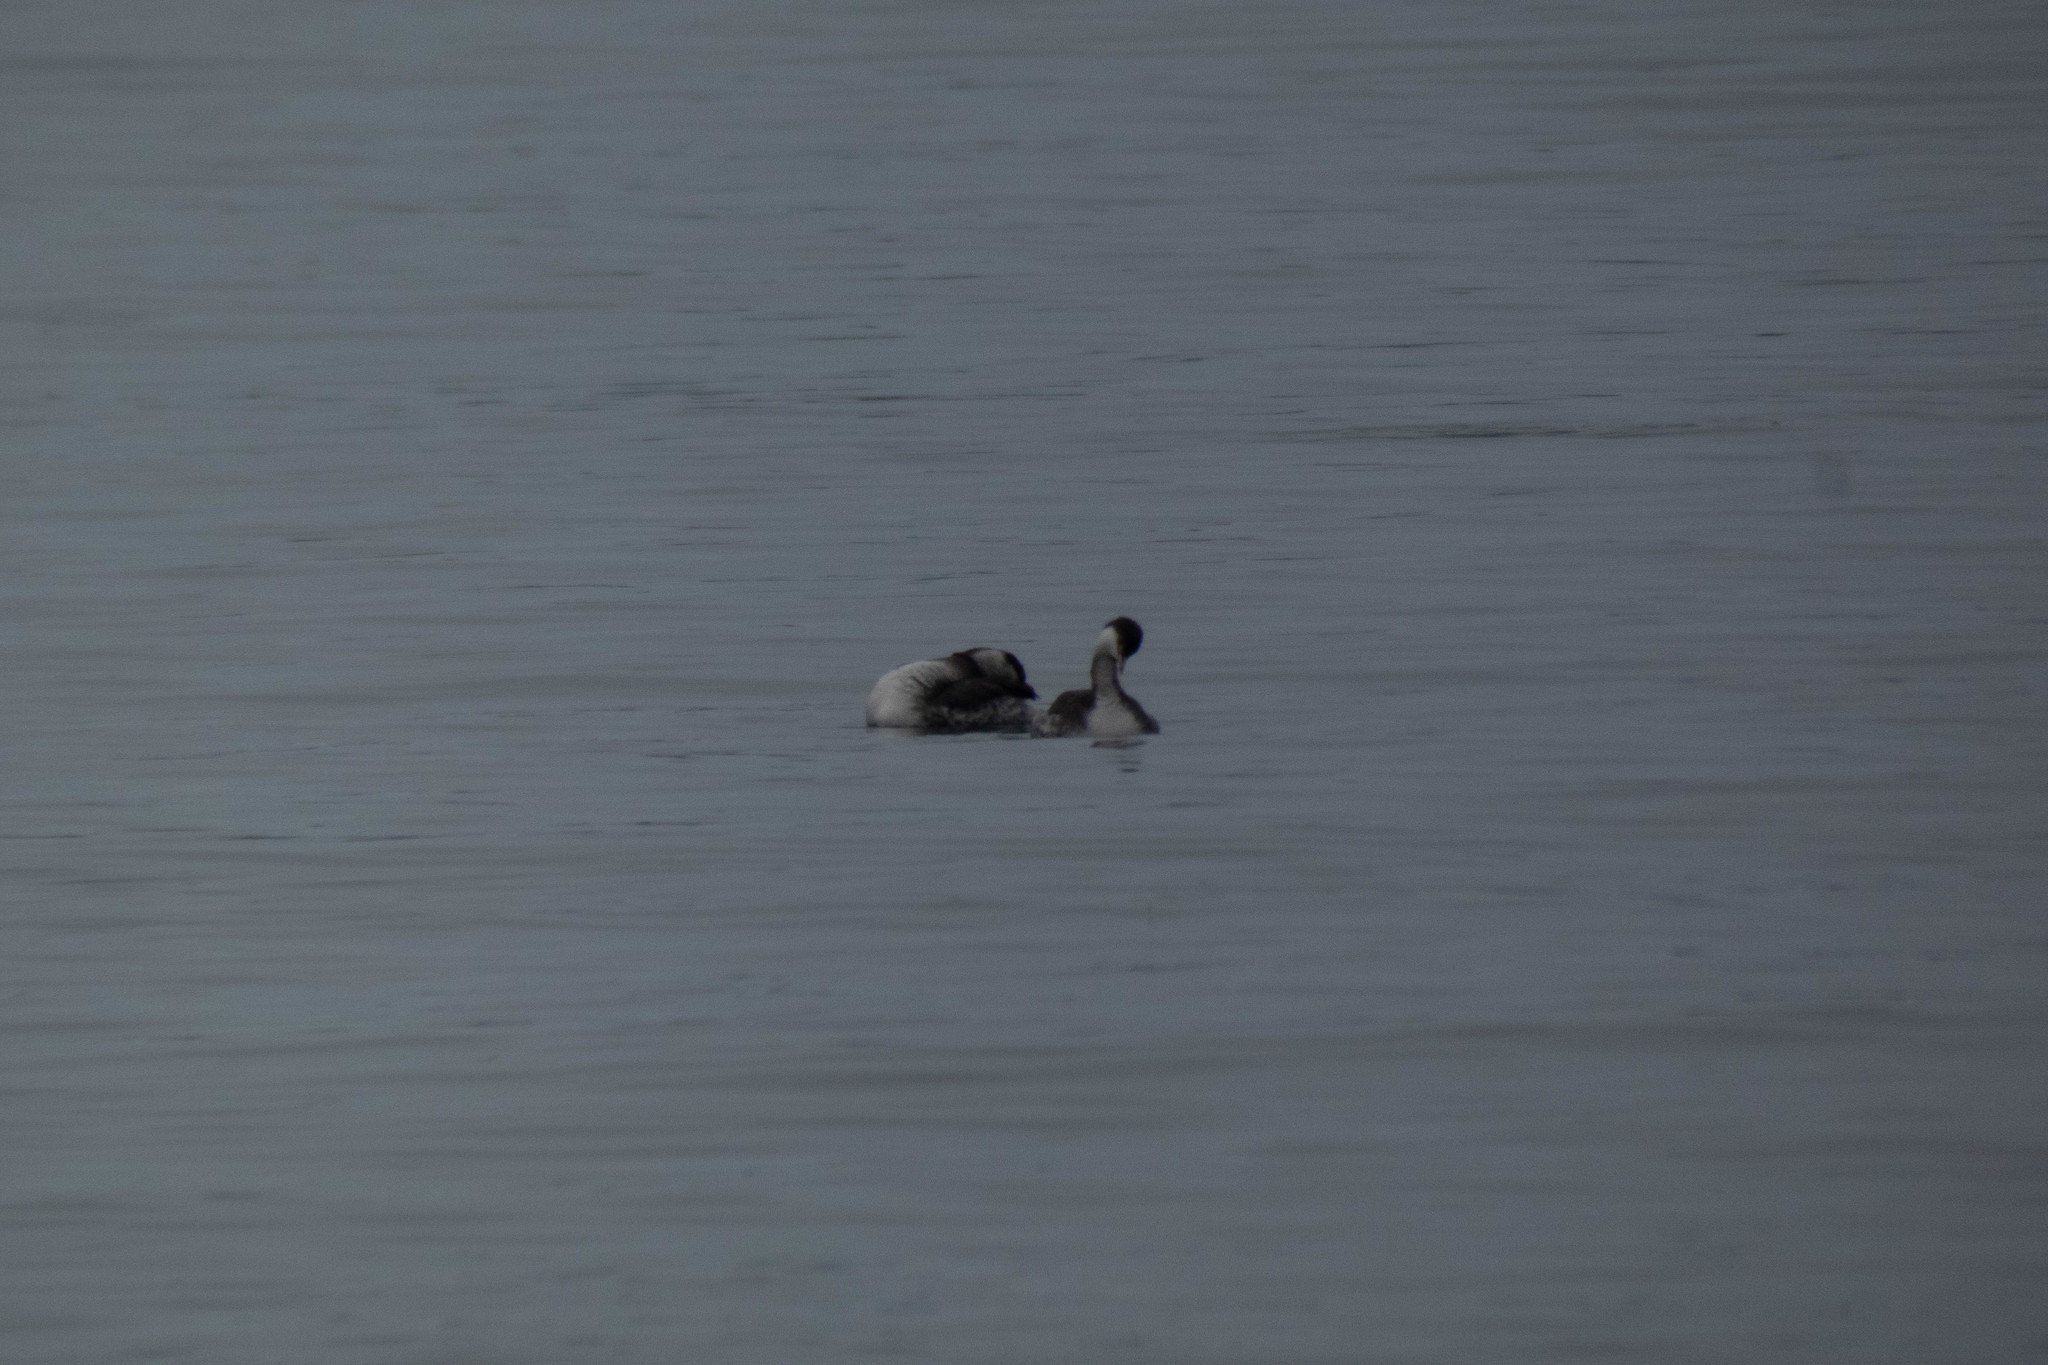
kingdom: Animalia
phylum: Chordata
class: Aves
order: Podicipediformes
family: Podicipedidae
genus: Podiceps
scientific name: Podiceps auritus
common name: Horned grebe
